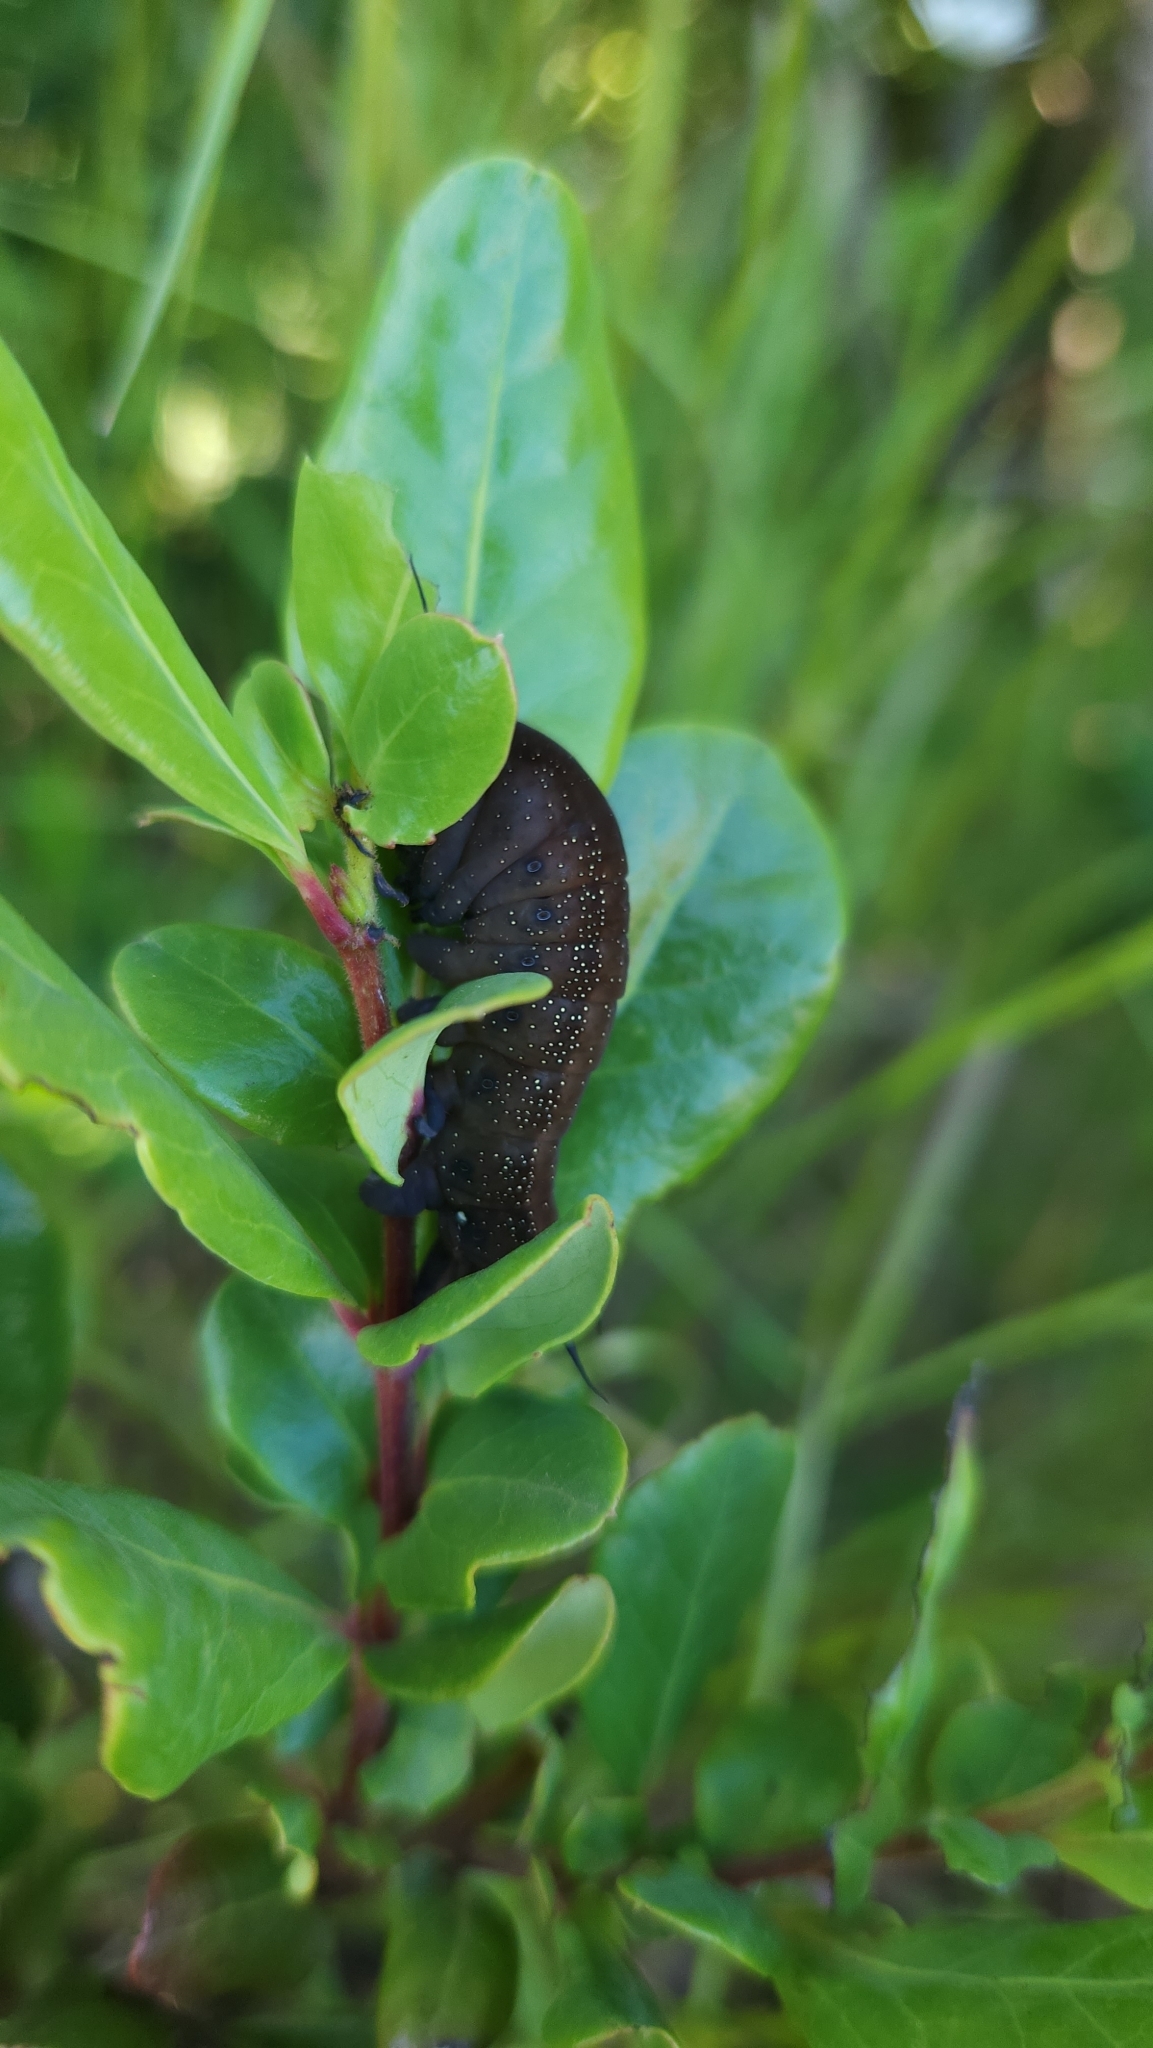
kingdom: Animalia
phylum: Arthropoda
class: Insecta
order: Lepidoptera
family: Erebidae
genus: Edmondsia
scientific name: Edmondsia sypnoides
